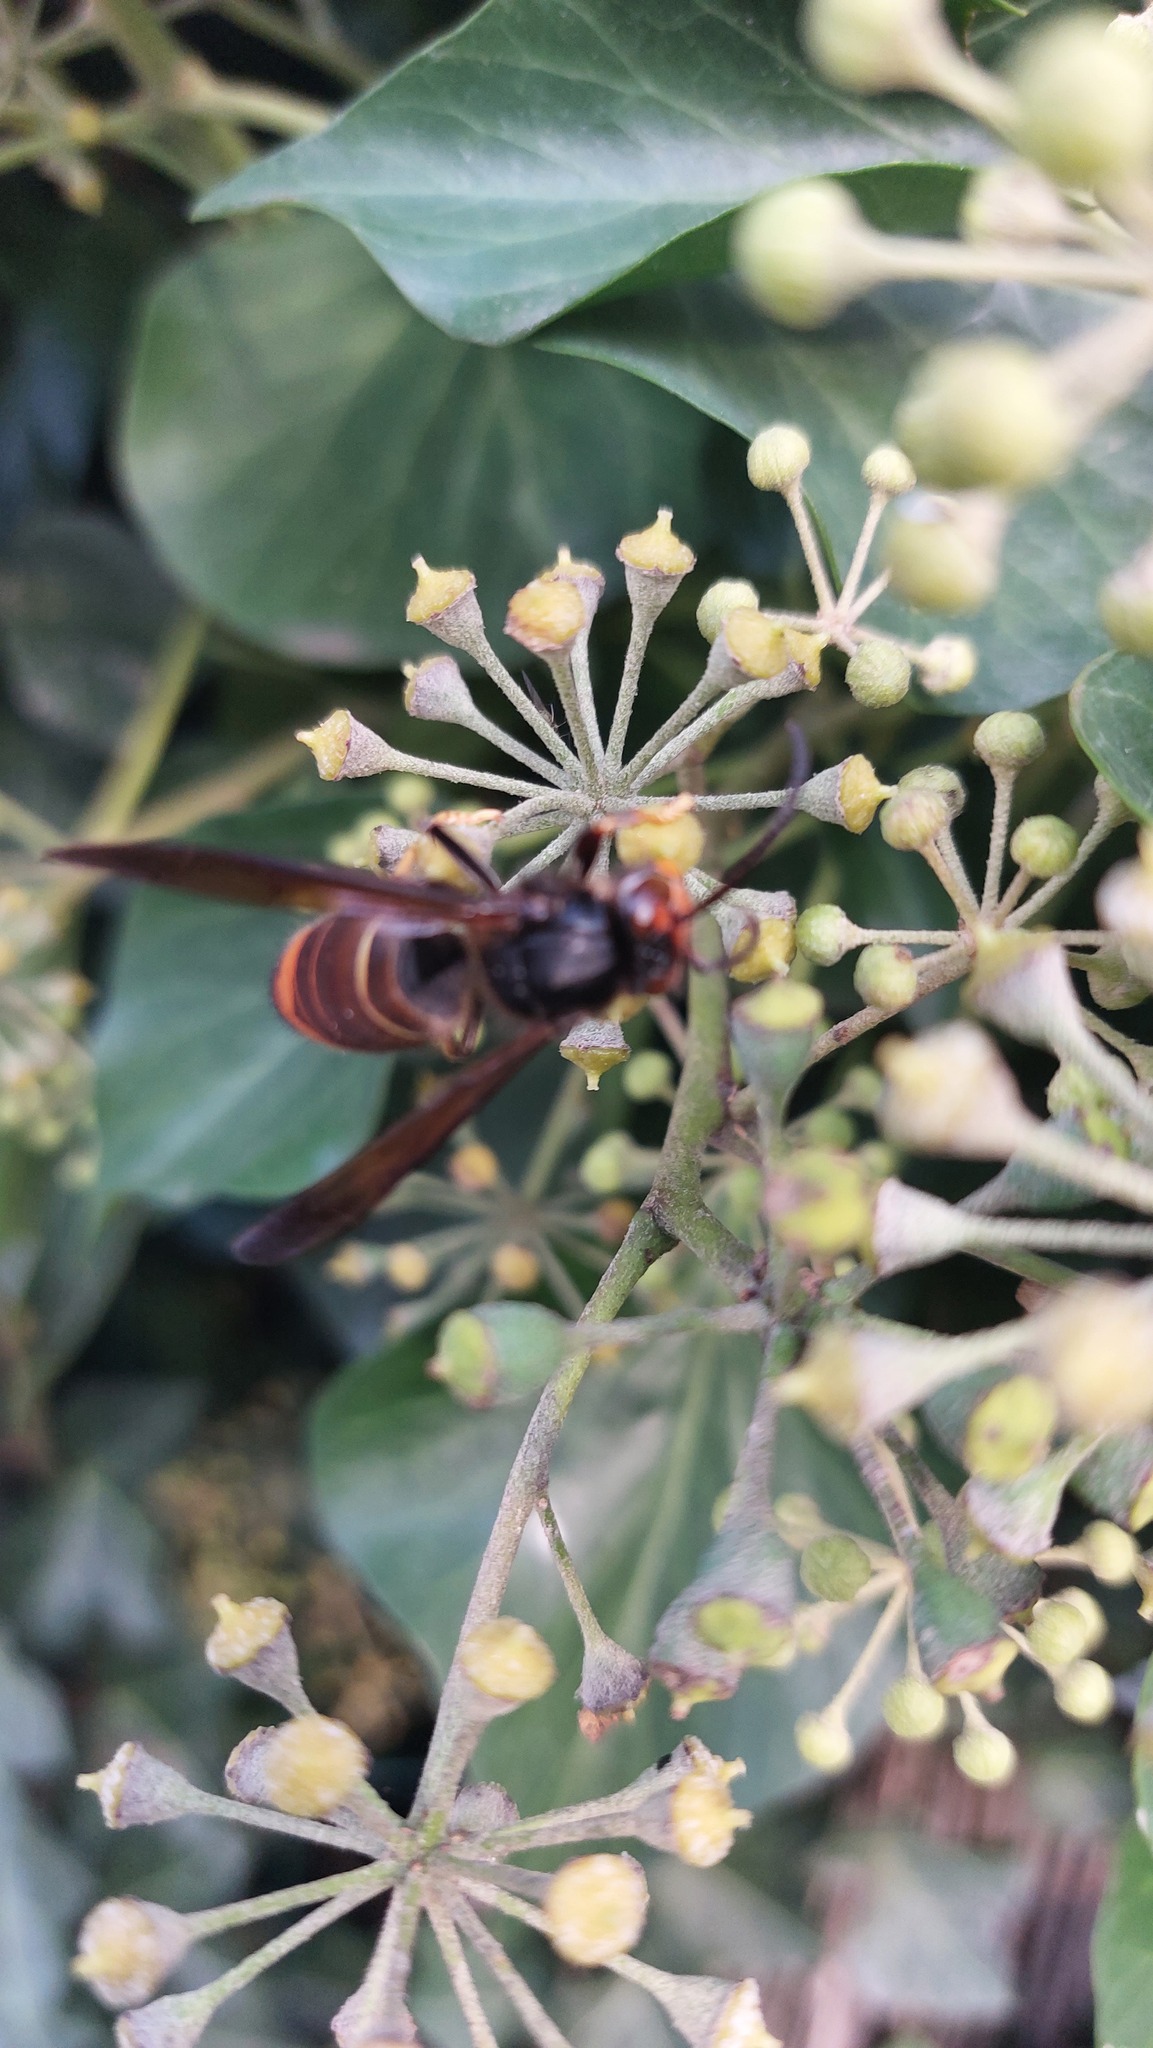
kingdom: Animalia
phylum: Arthropoda
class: Insecta
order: Hymenoptera
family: Vespidae
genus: Vespa
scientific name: Vespa velutina
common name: Asian hornet
